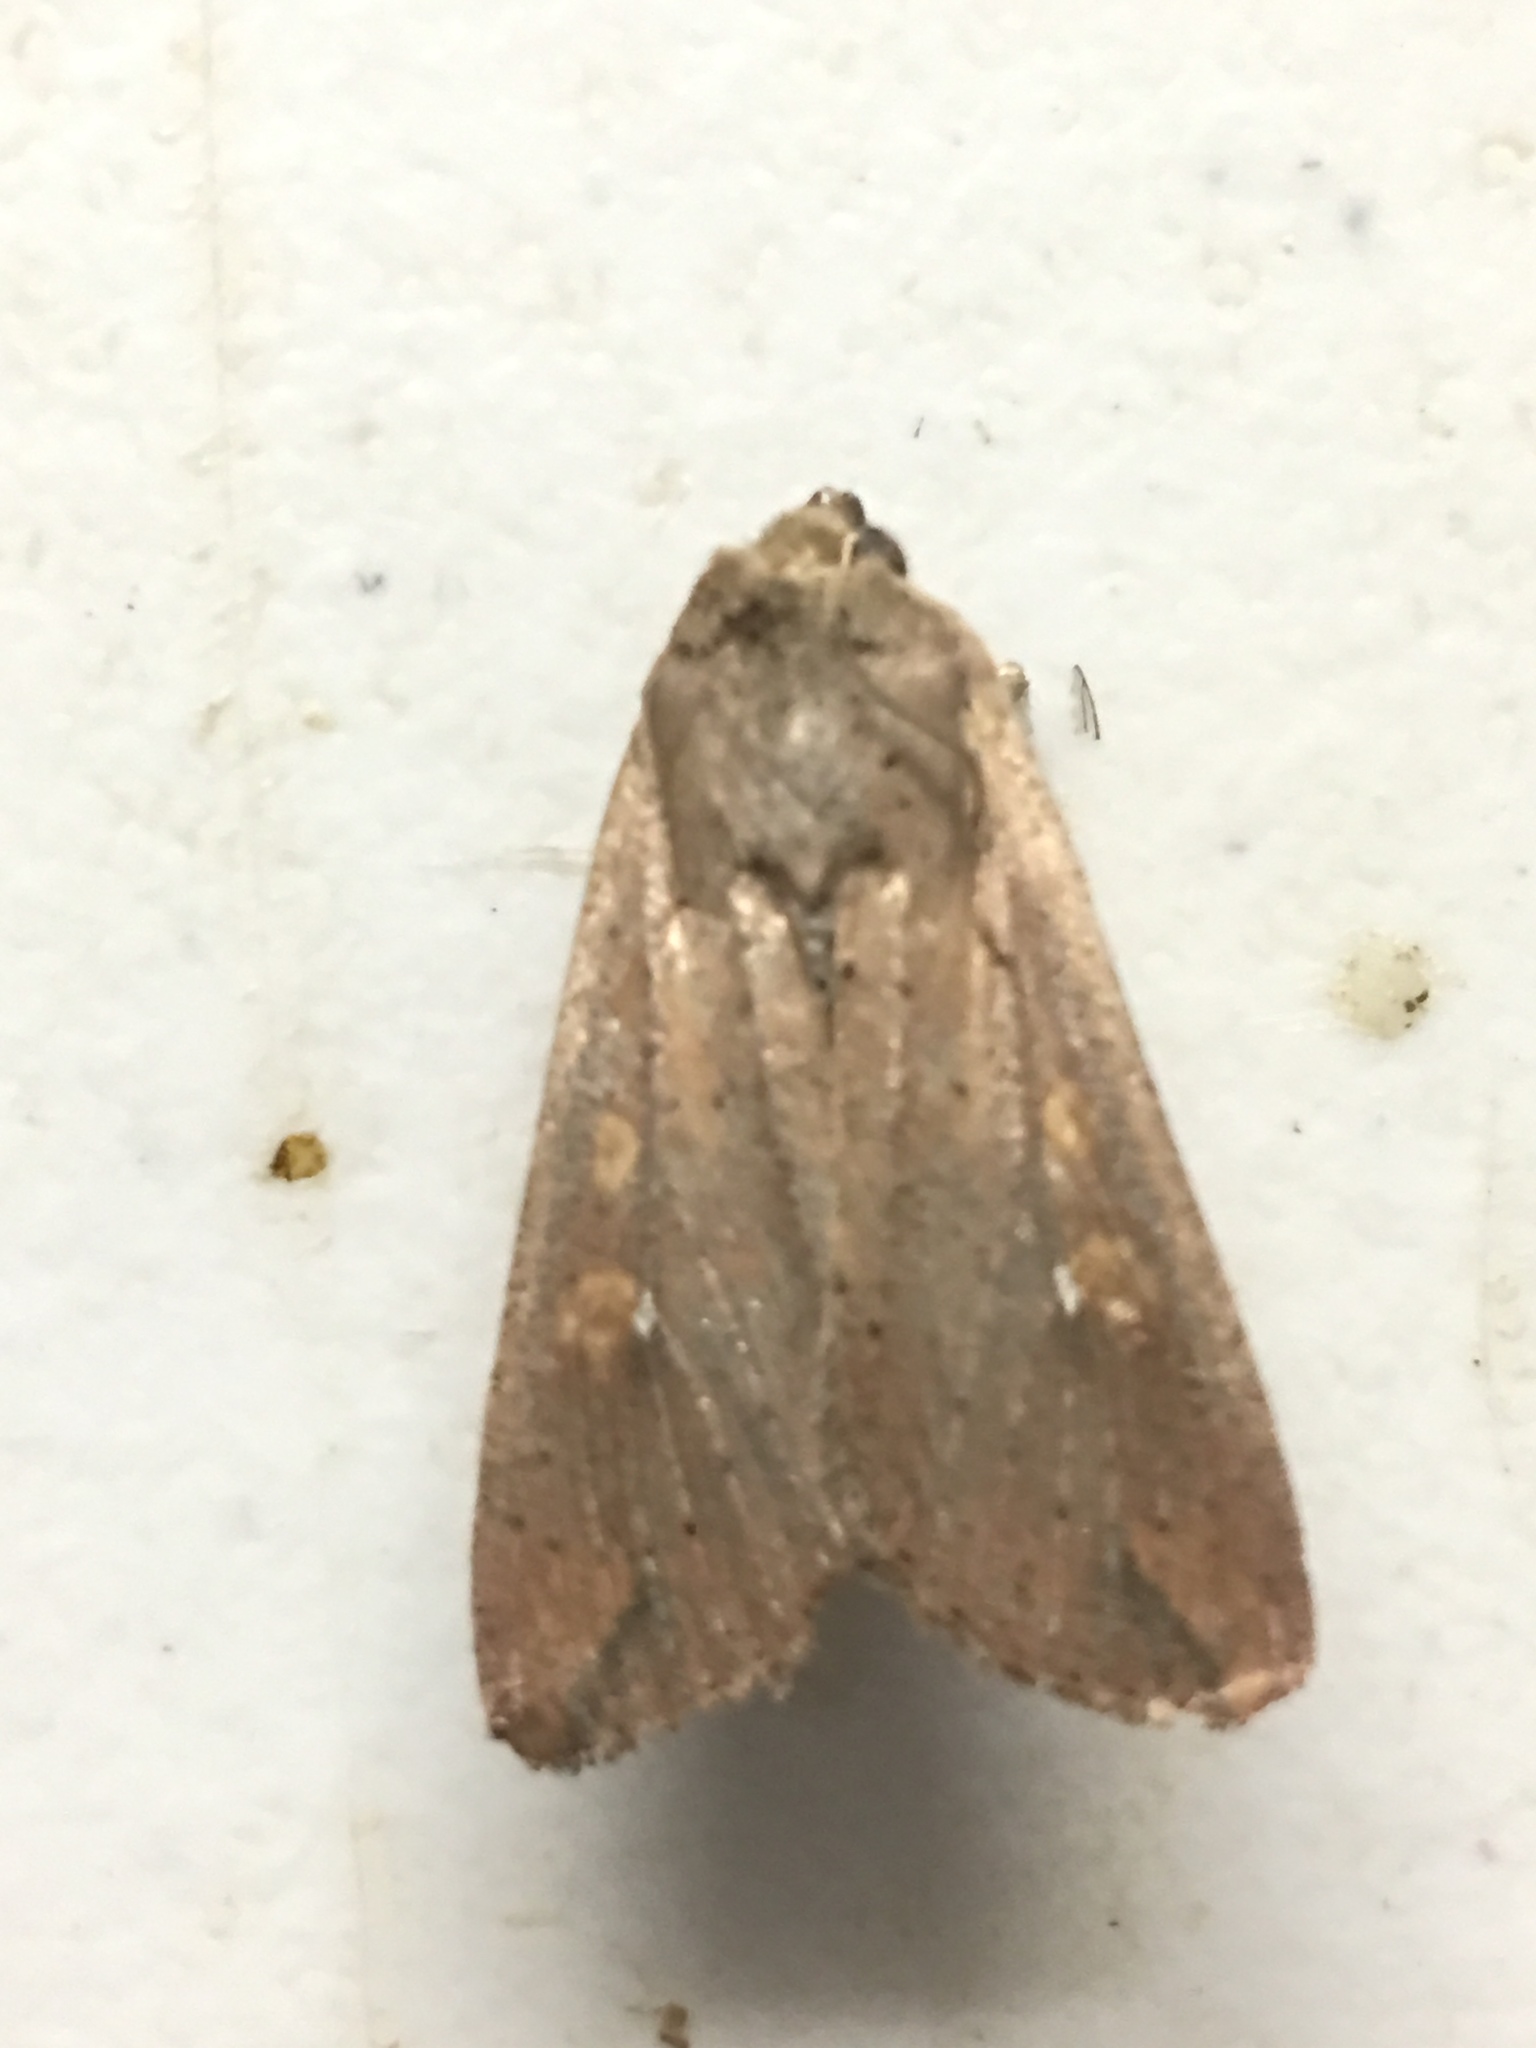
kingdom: Animalia
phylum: Arthropoda
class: Insecta
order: Lepidoptera
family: Noctuidae
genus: Mythimna
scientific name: Mythimna unipuncta
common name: White-speck
